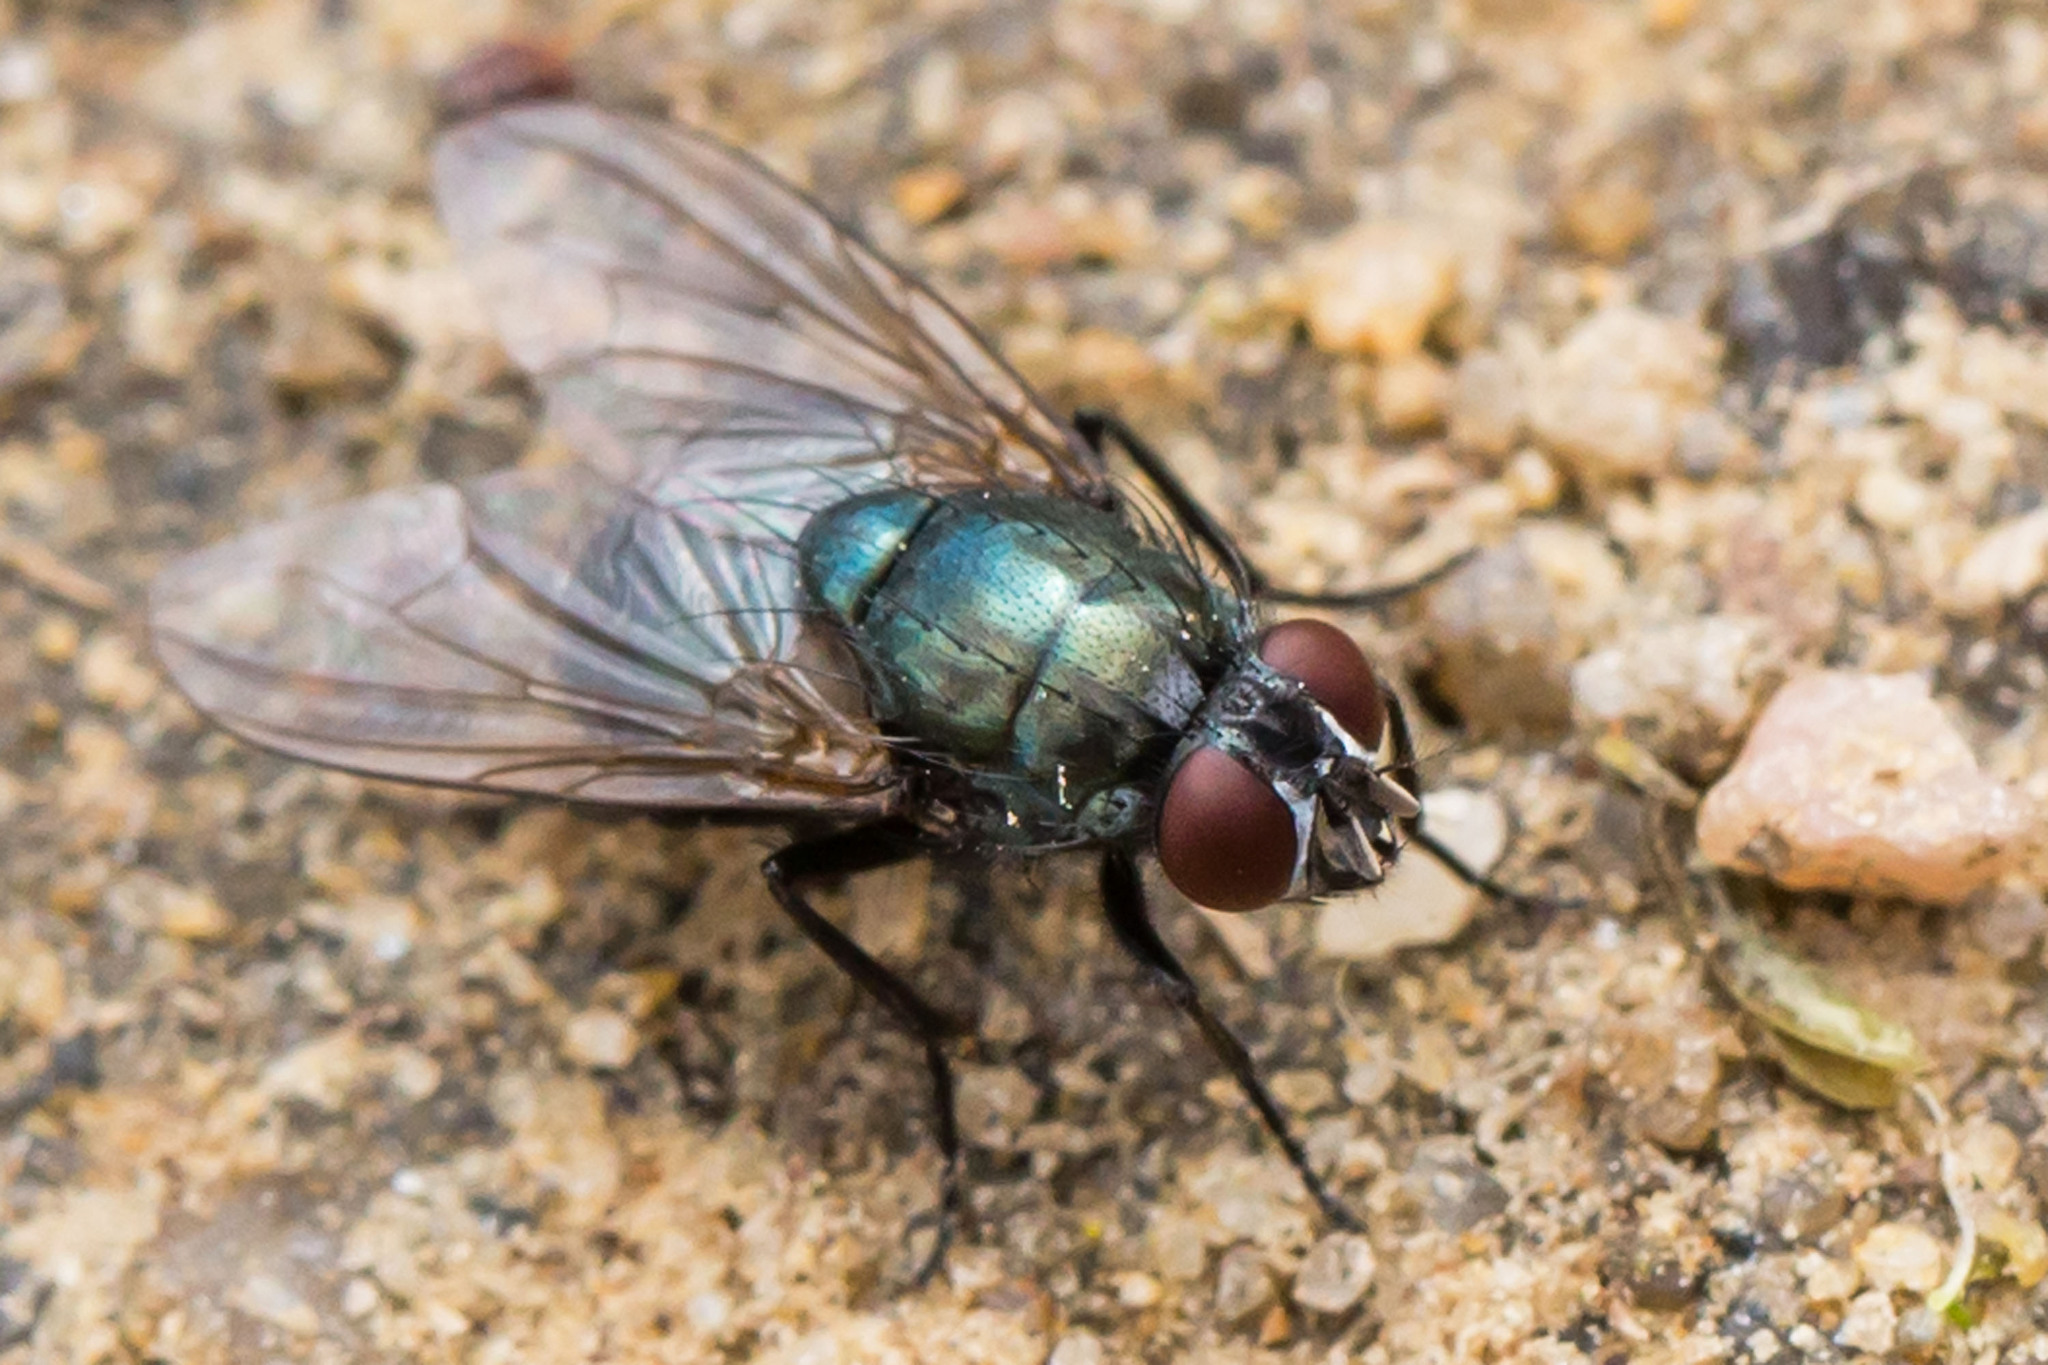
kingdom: Animalia
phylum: Arthropoda
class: Insecta
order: Diptera
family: Muscidae
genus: Eudasyphora
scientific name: Eudasyphora cyanicolor
